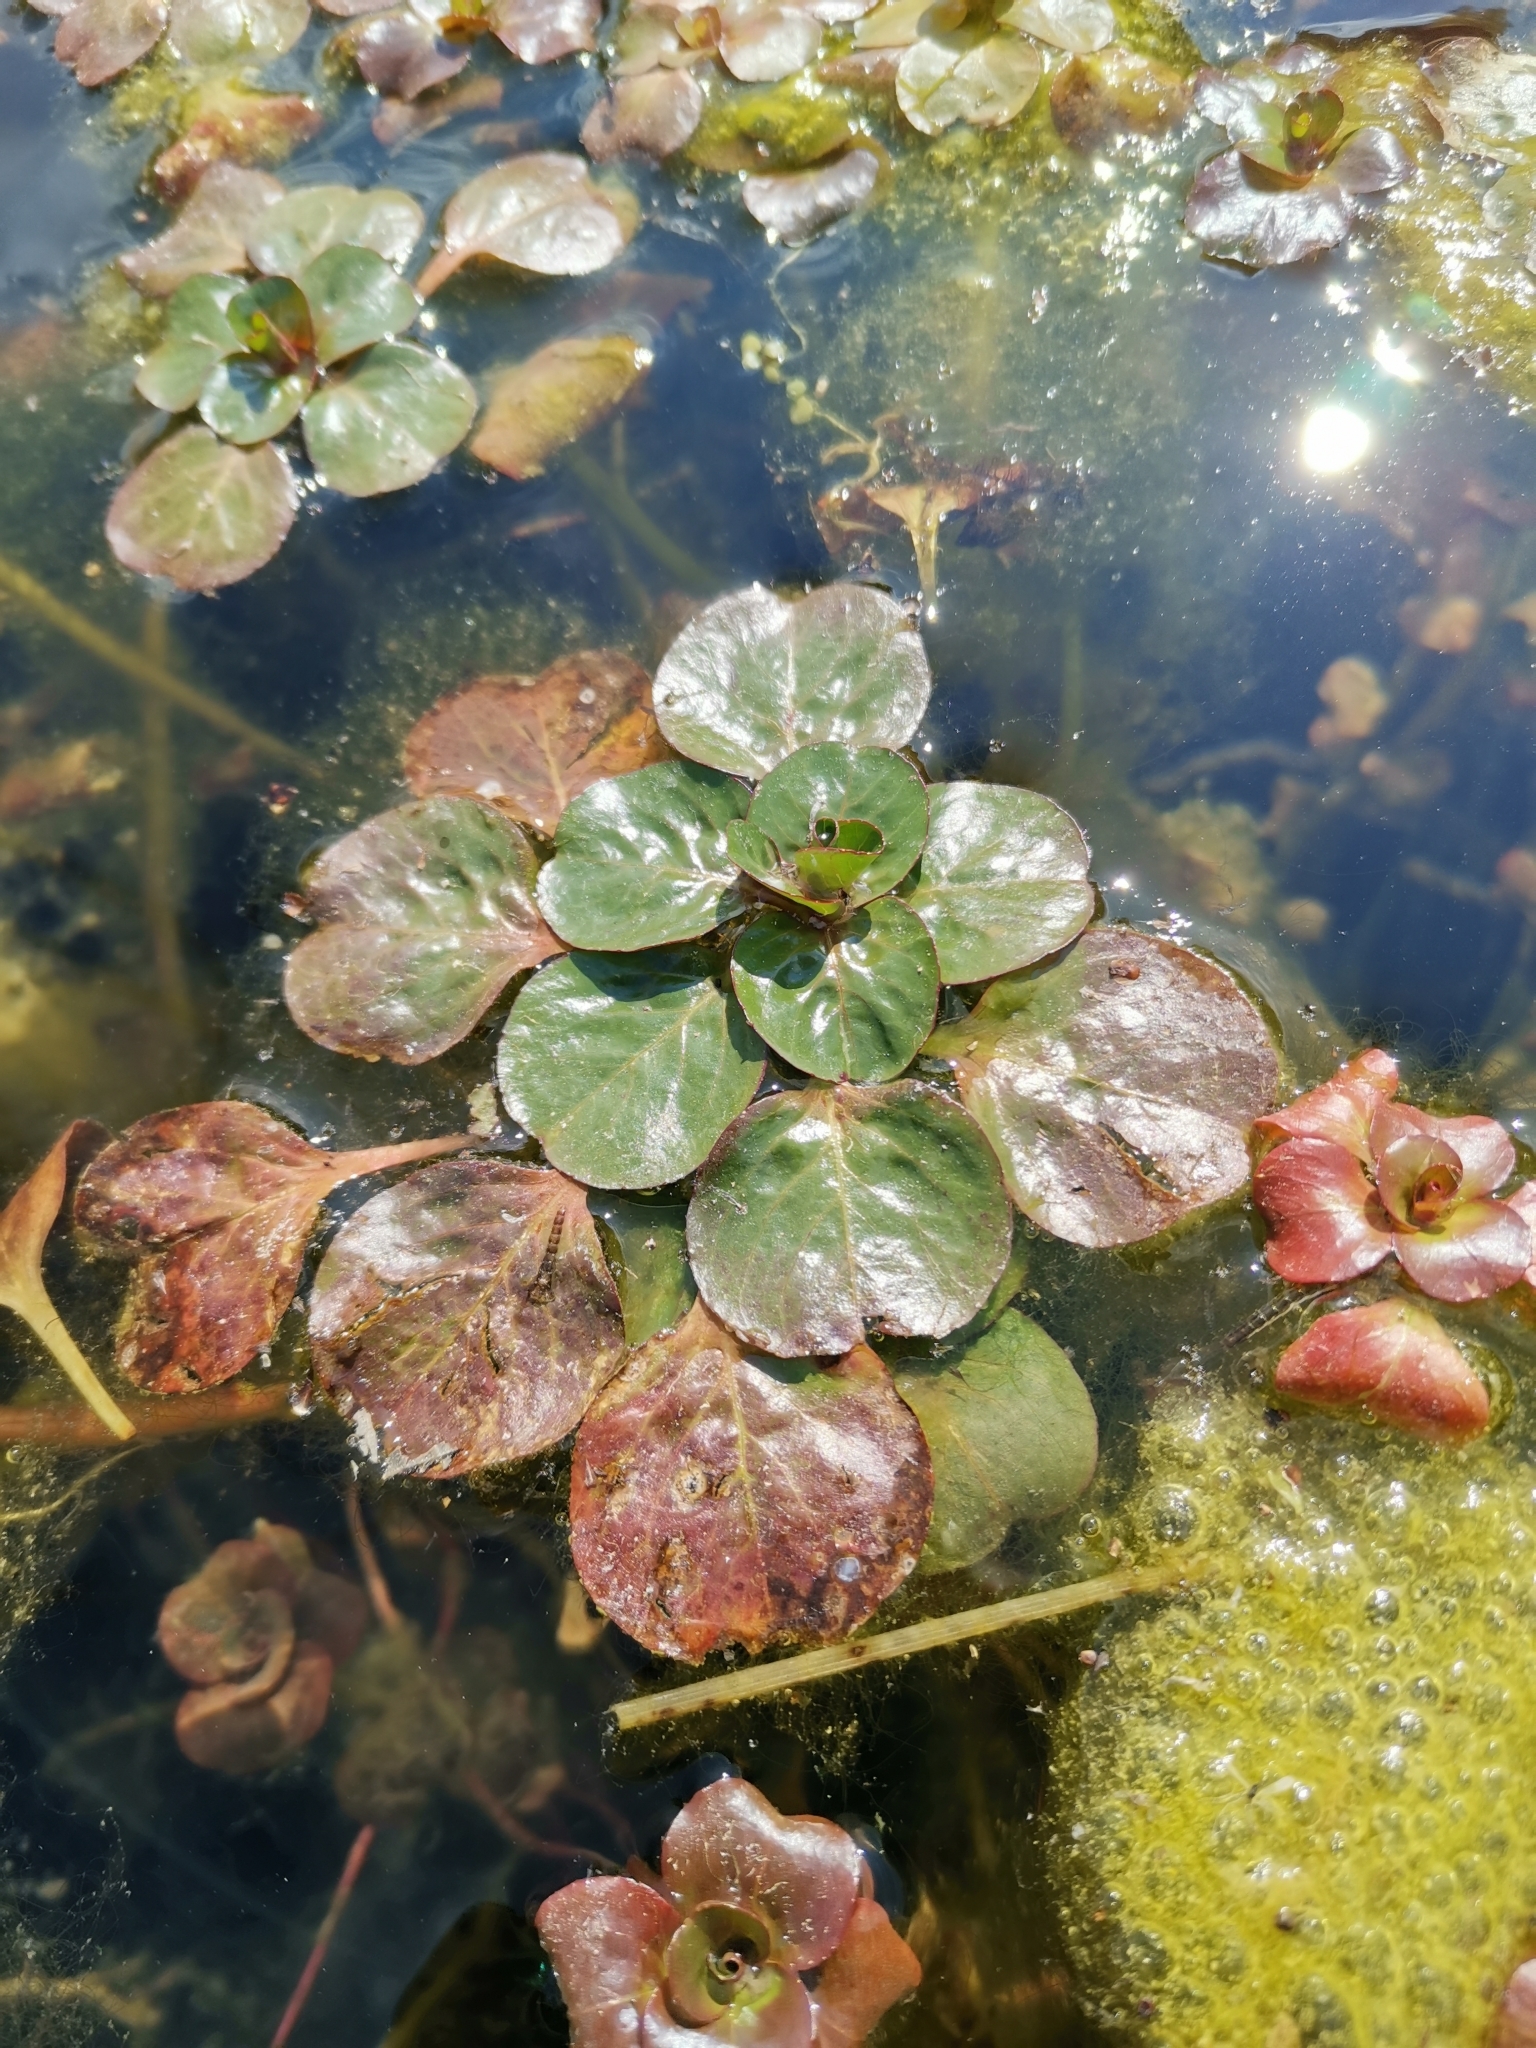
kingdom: Plantae
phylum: Tracheophyta
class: Magnoliopsida
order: Myrtales
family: Onagraceae
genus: Ludwigia
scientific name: Ludwigia peploides
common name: Floating primrose-willow
